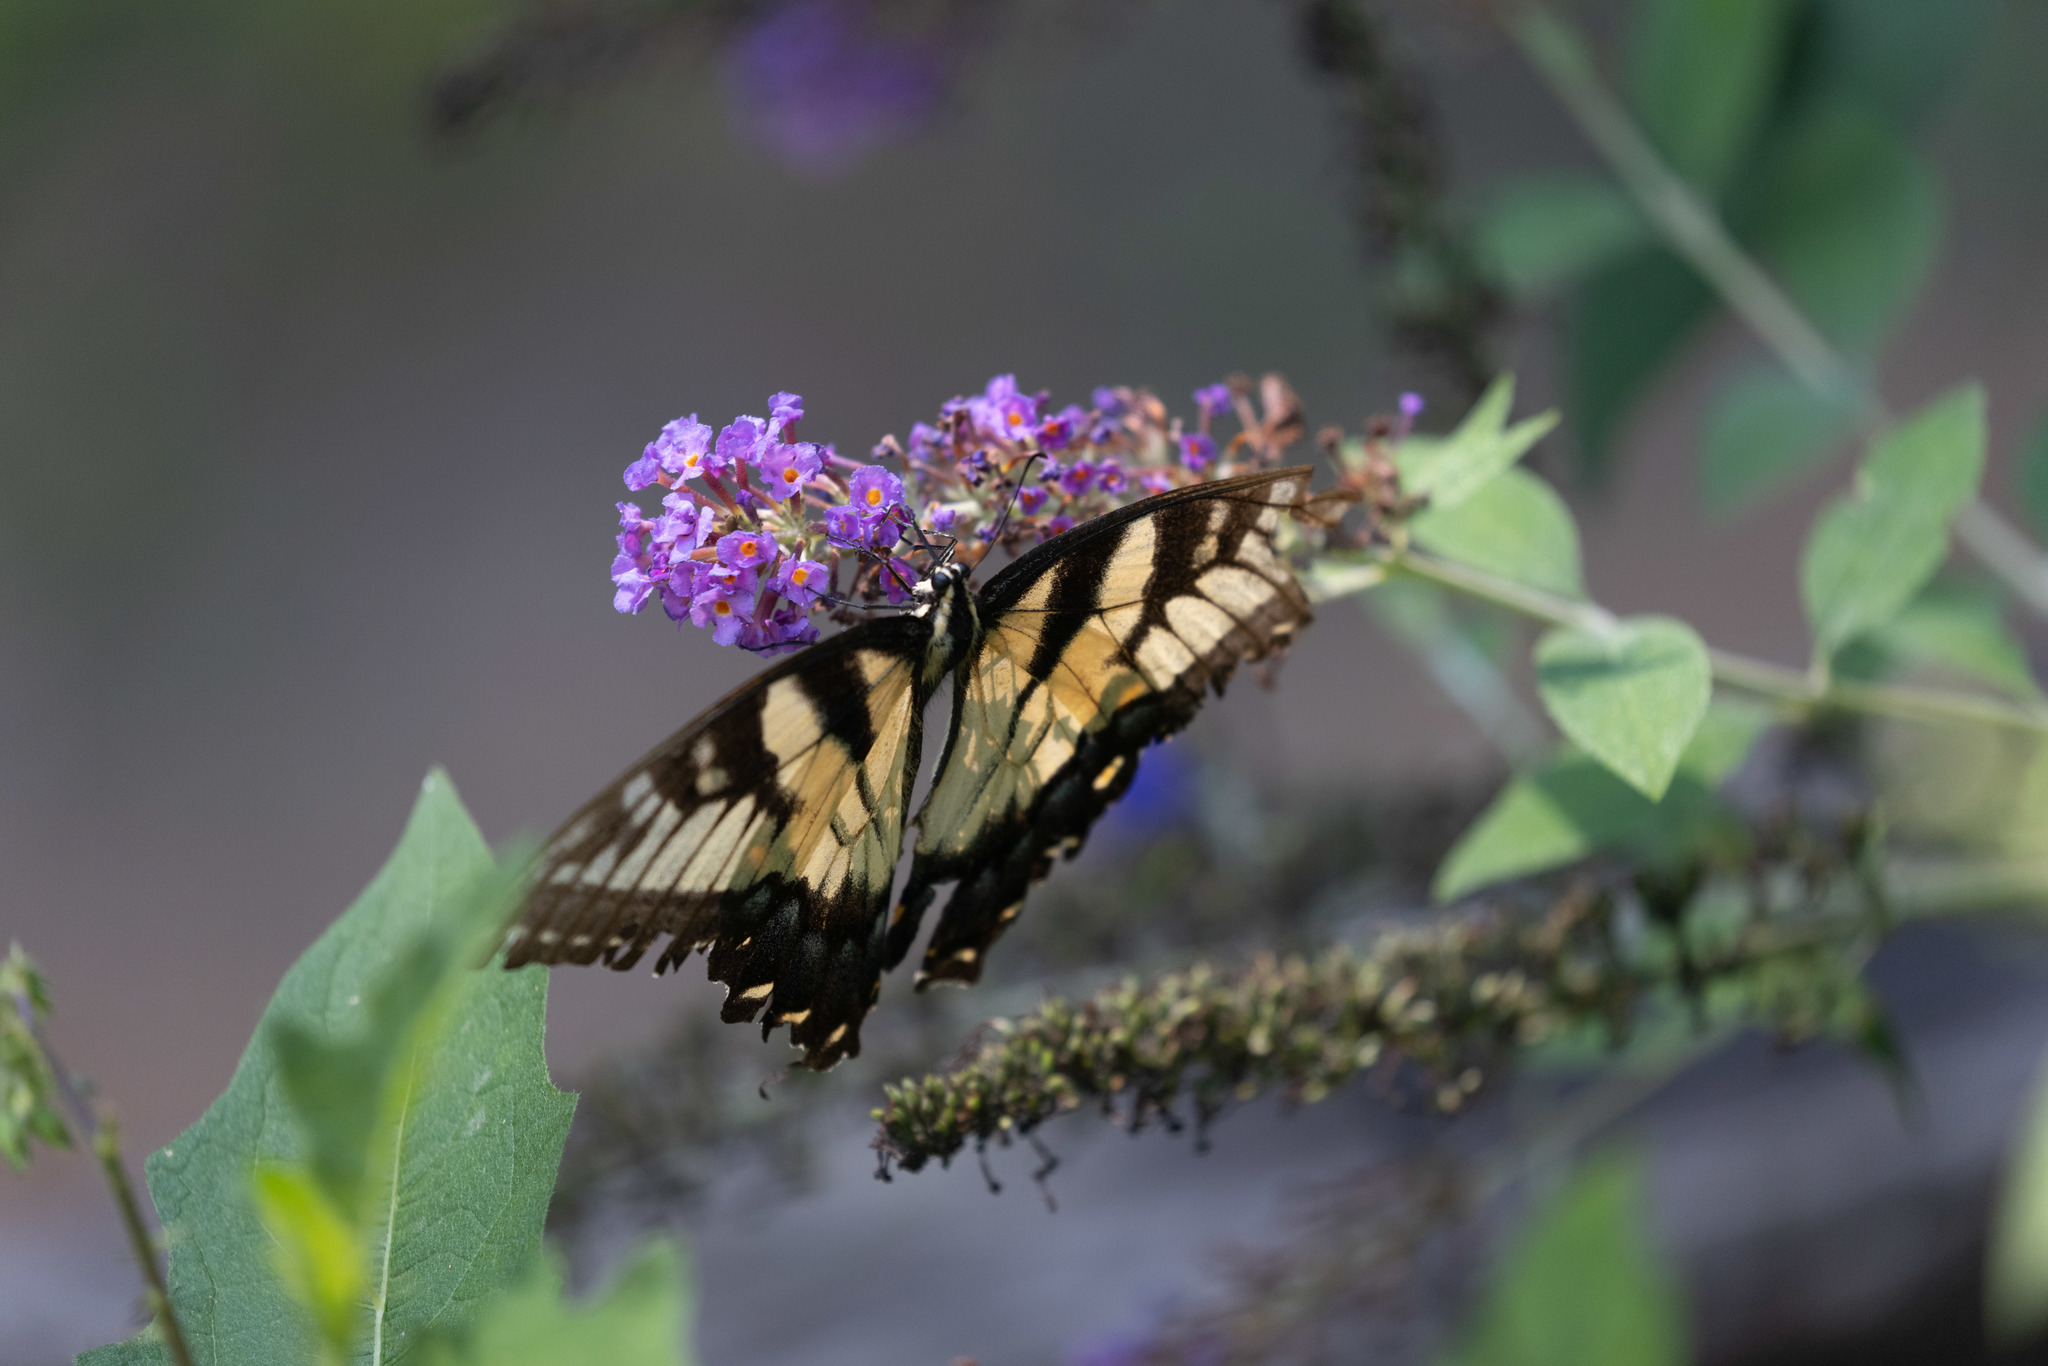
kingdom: Animalia
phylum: Arthropoda
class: Insecta
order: Lepidoptera
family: Papilionidae
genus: Papilio
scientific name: Papilio glaucus
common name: Tiger swallowtail
